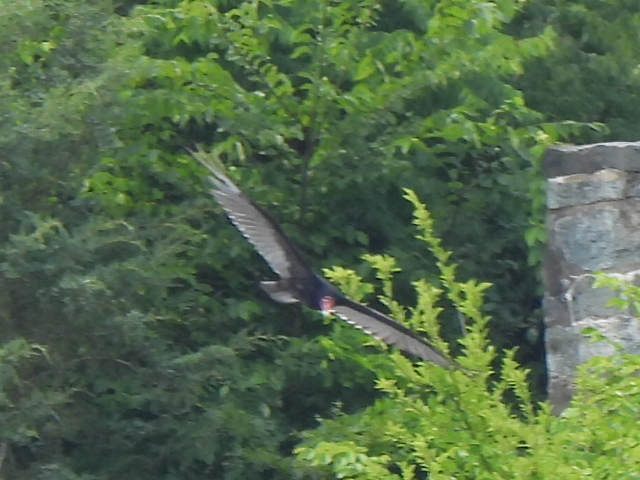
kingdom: Animalia
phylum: Chordata
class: Aves
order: Accipitriformes
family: Cathartidae
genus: Cathartes
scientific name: Cathartes aura
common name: Turkey vulture
